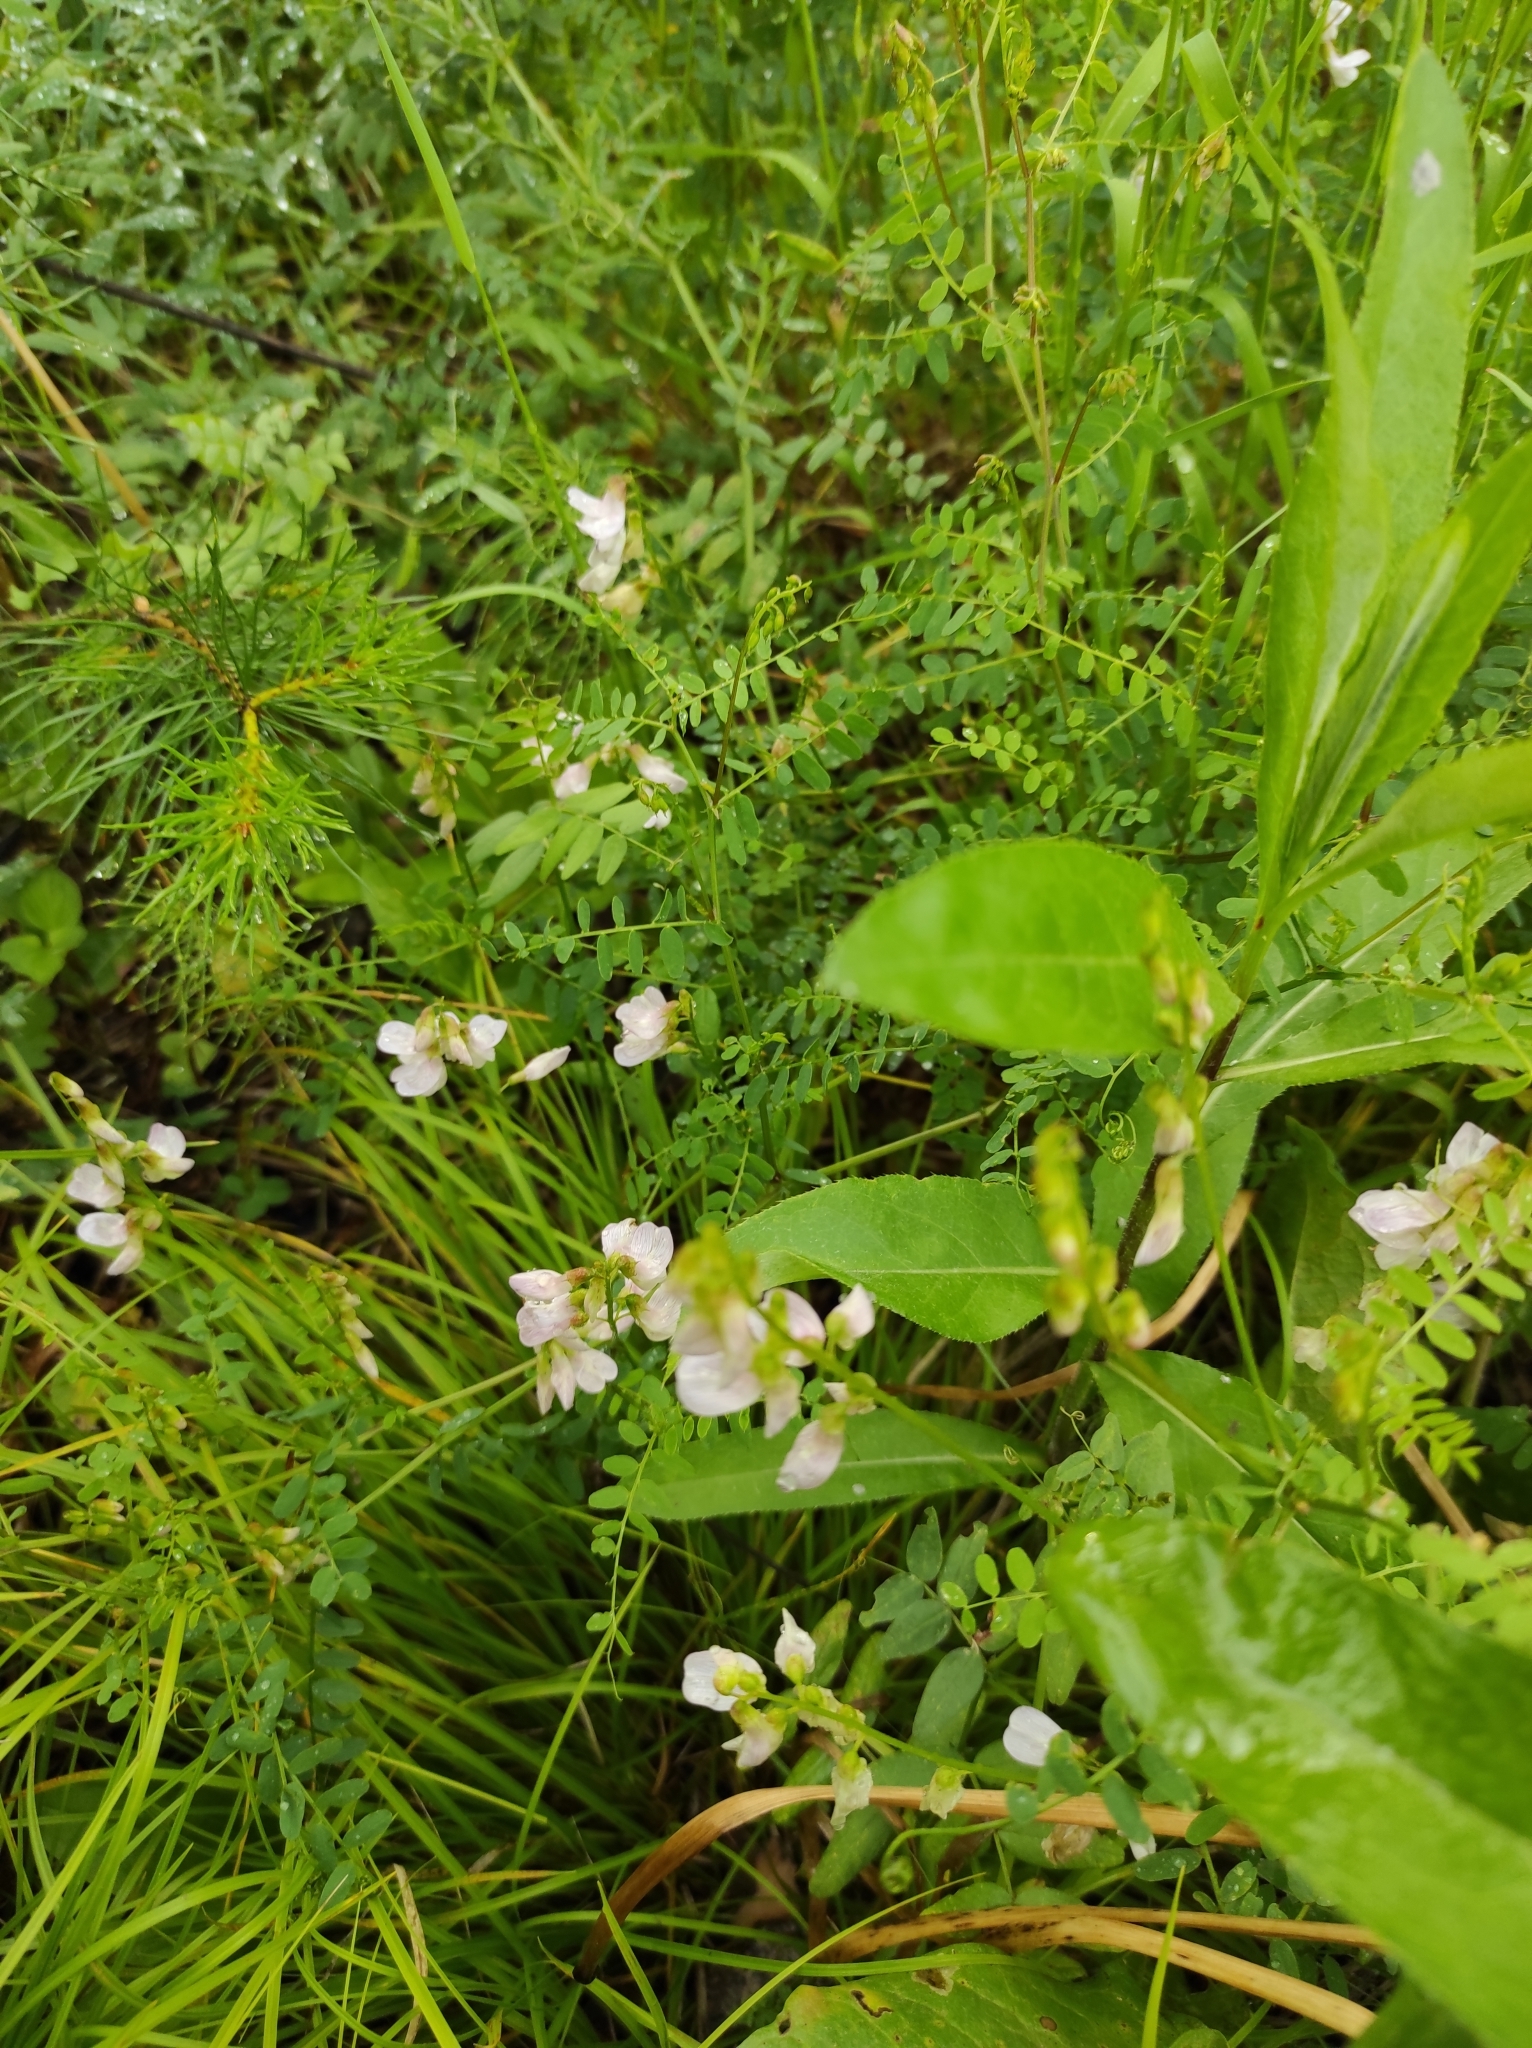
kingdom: Plantae
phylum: Tracheophyta
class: Magnoliopsida
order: Fabales
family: Fabaceae
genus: Vicia
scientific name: Vicia sylvatica
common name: Wood vetch
